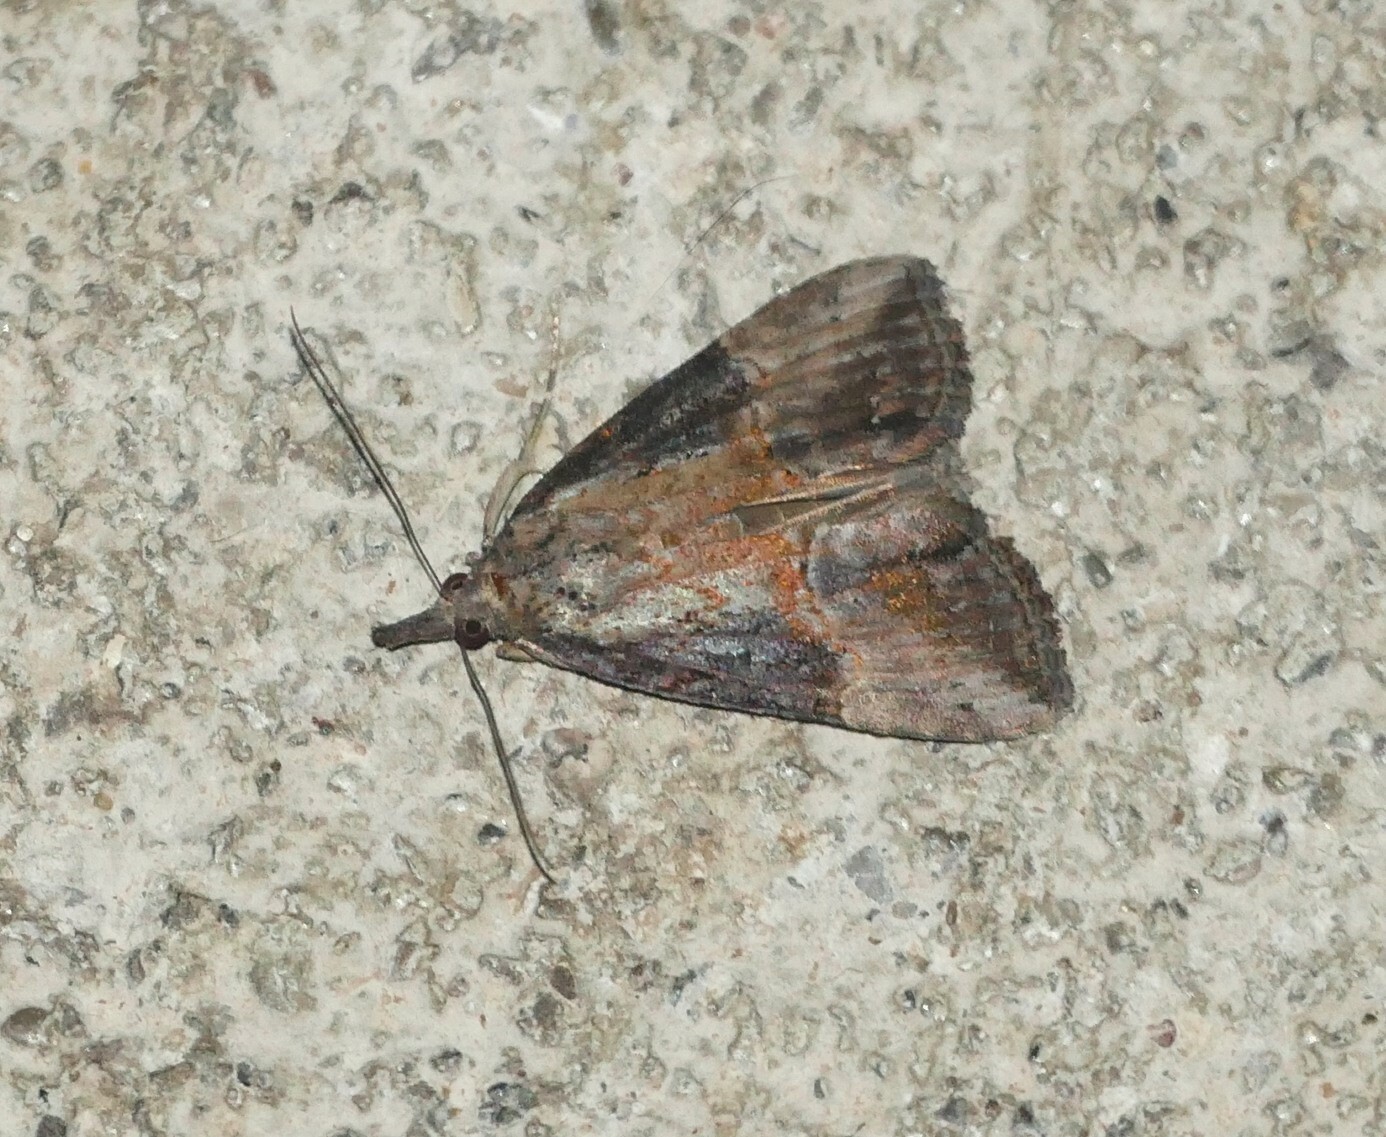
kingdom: Animalia
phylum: Arthropoda
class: Insecta
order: Lepidoptera
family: Erebidae
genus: Hypena
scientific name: Hypena scabra
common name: Green cloverworm
